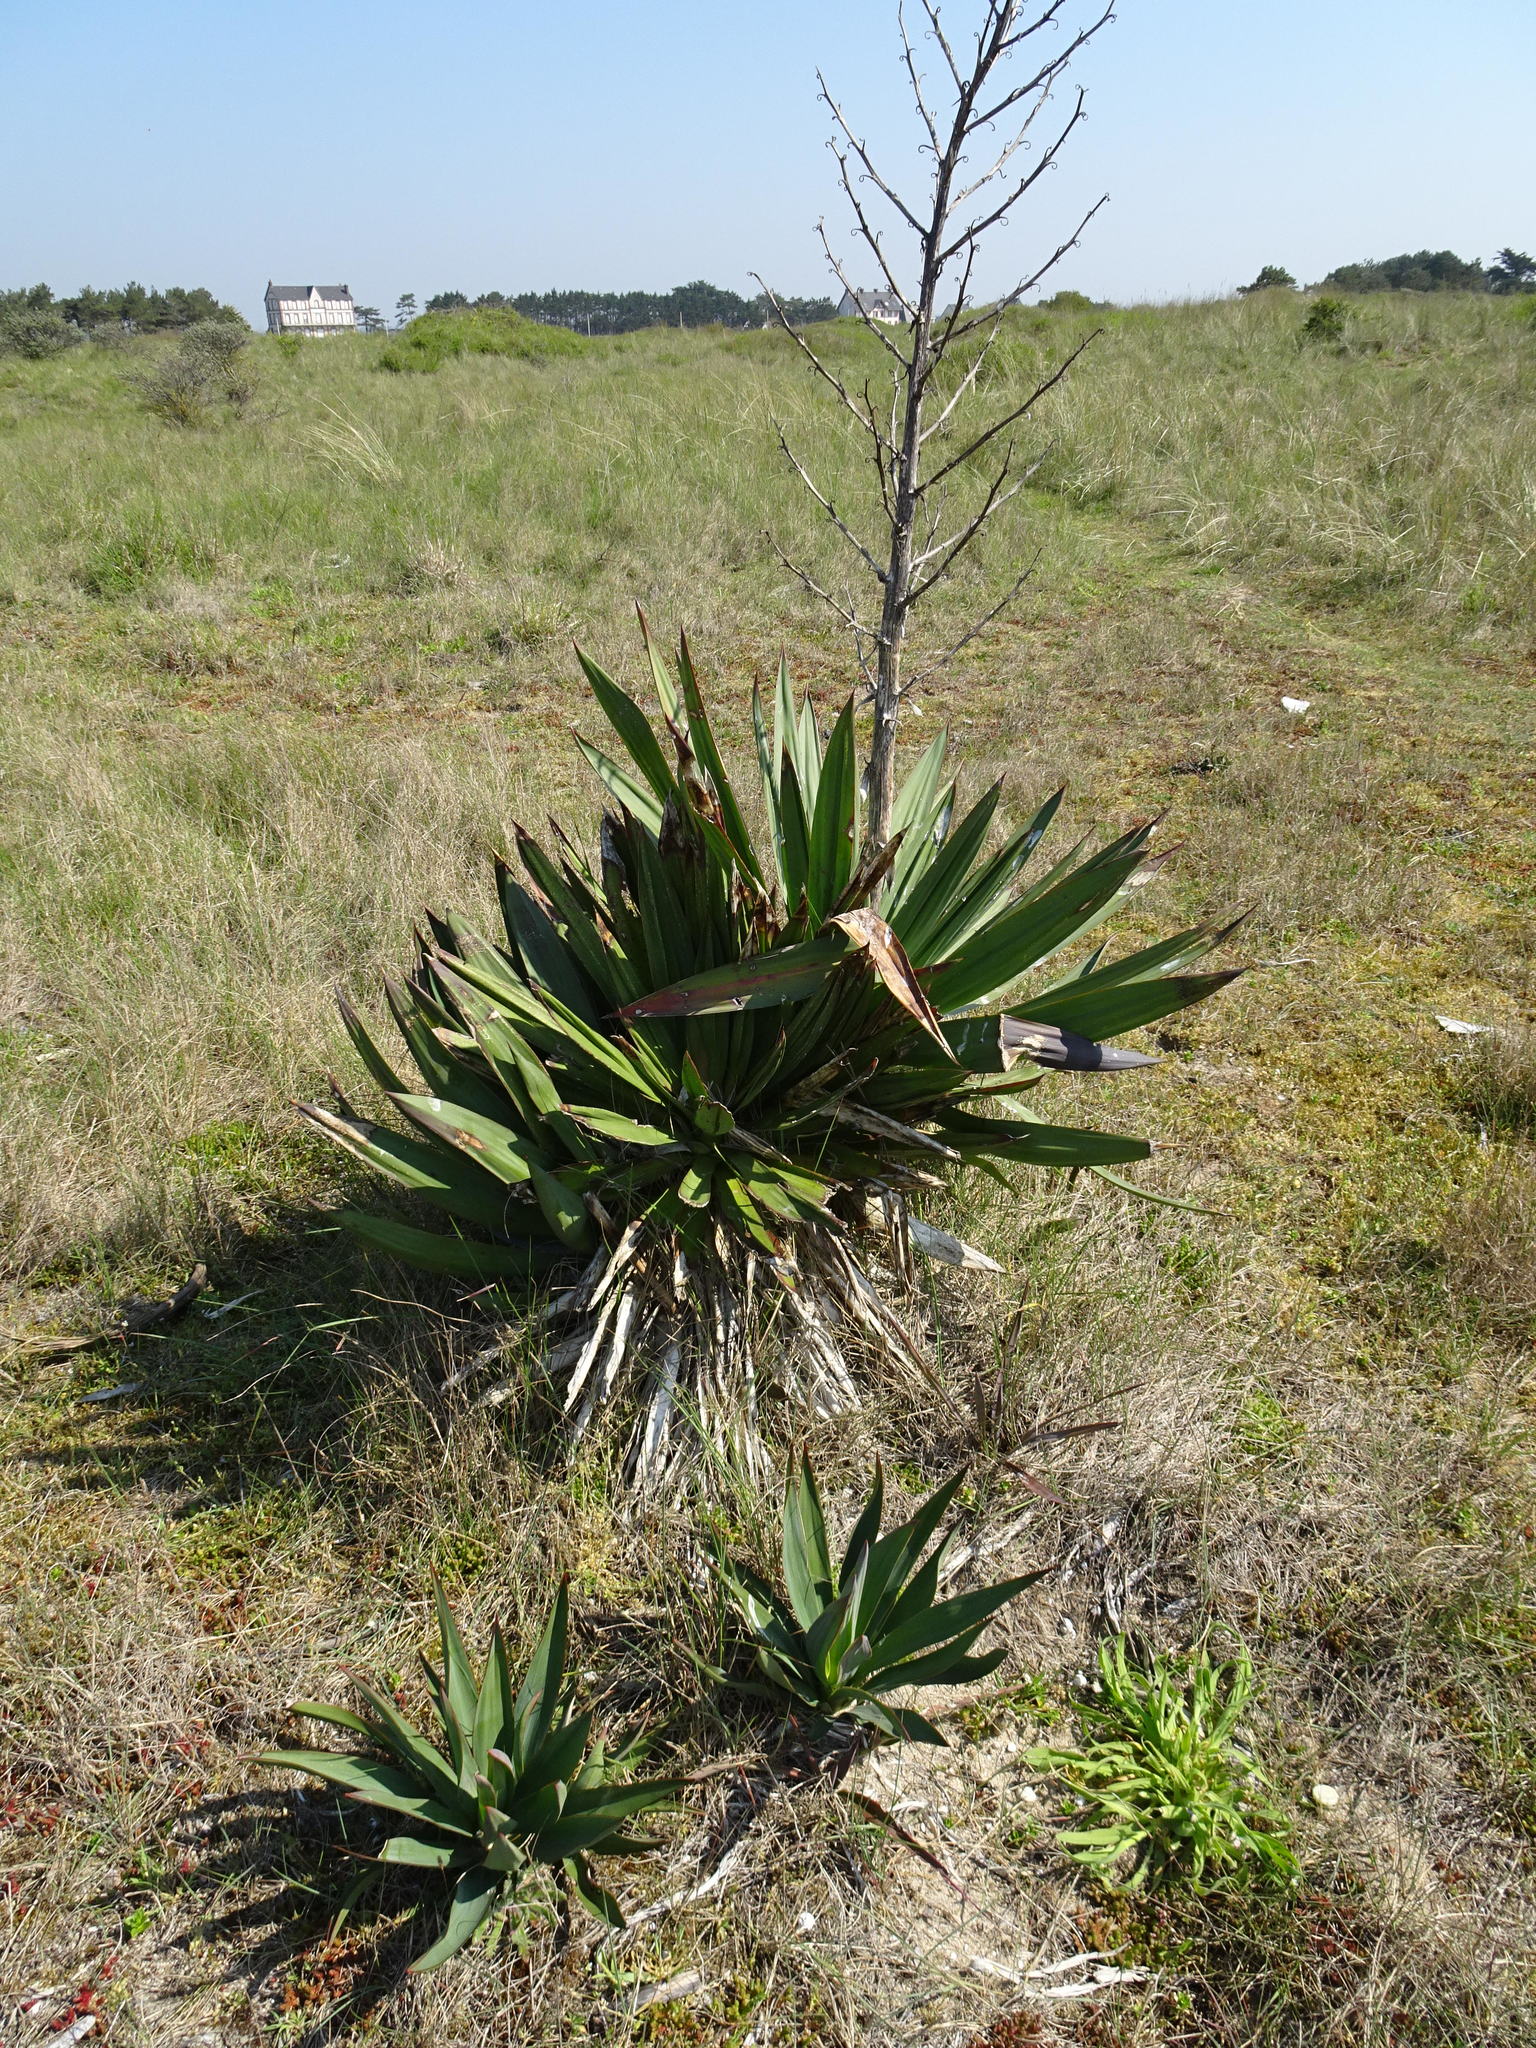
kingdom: Plantae
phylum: Tracheophyta
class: Liliopsida
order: Asparagales
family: Asparagaceae
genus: Yucca
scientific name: Yucca gloriosa
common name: Spanish-dagger
